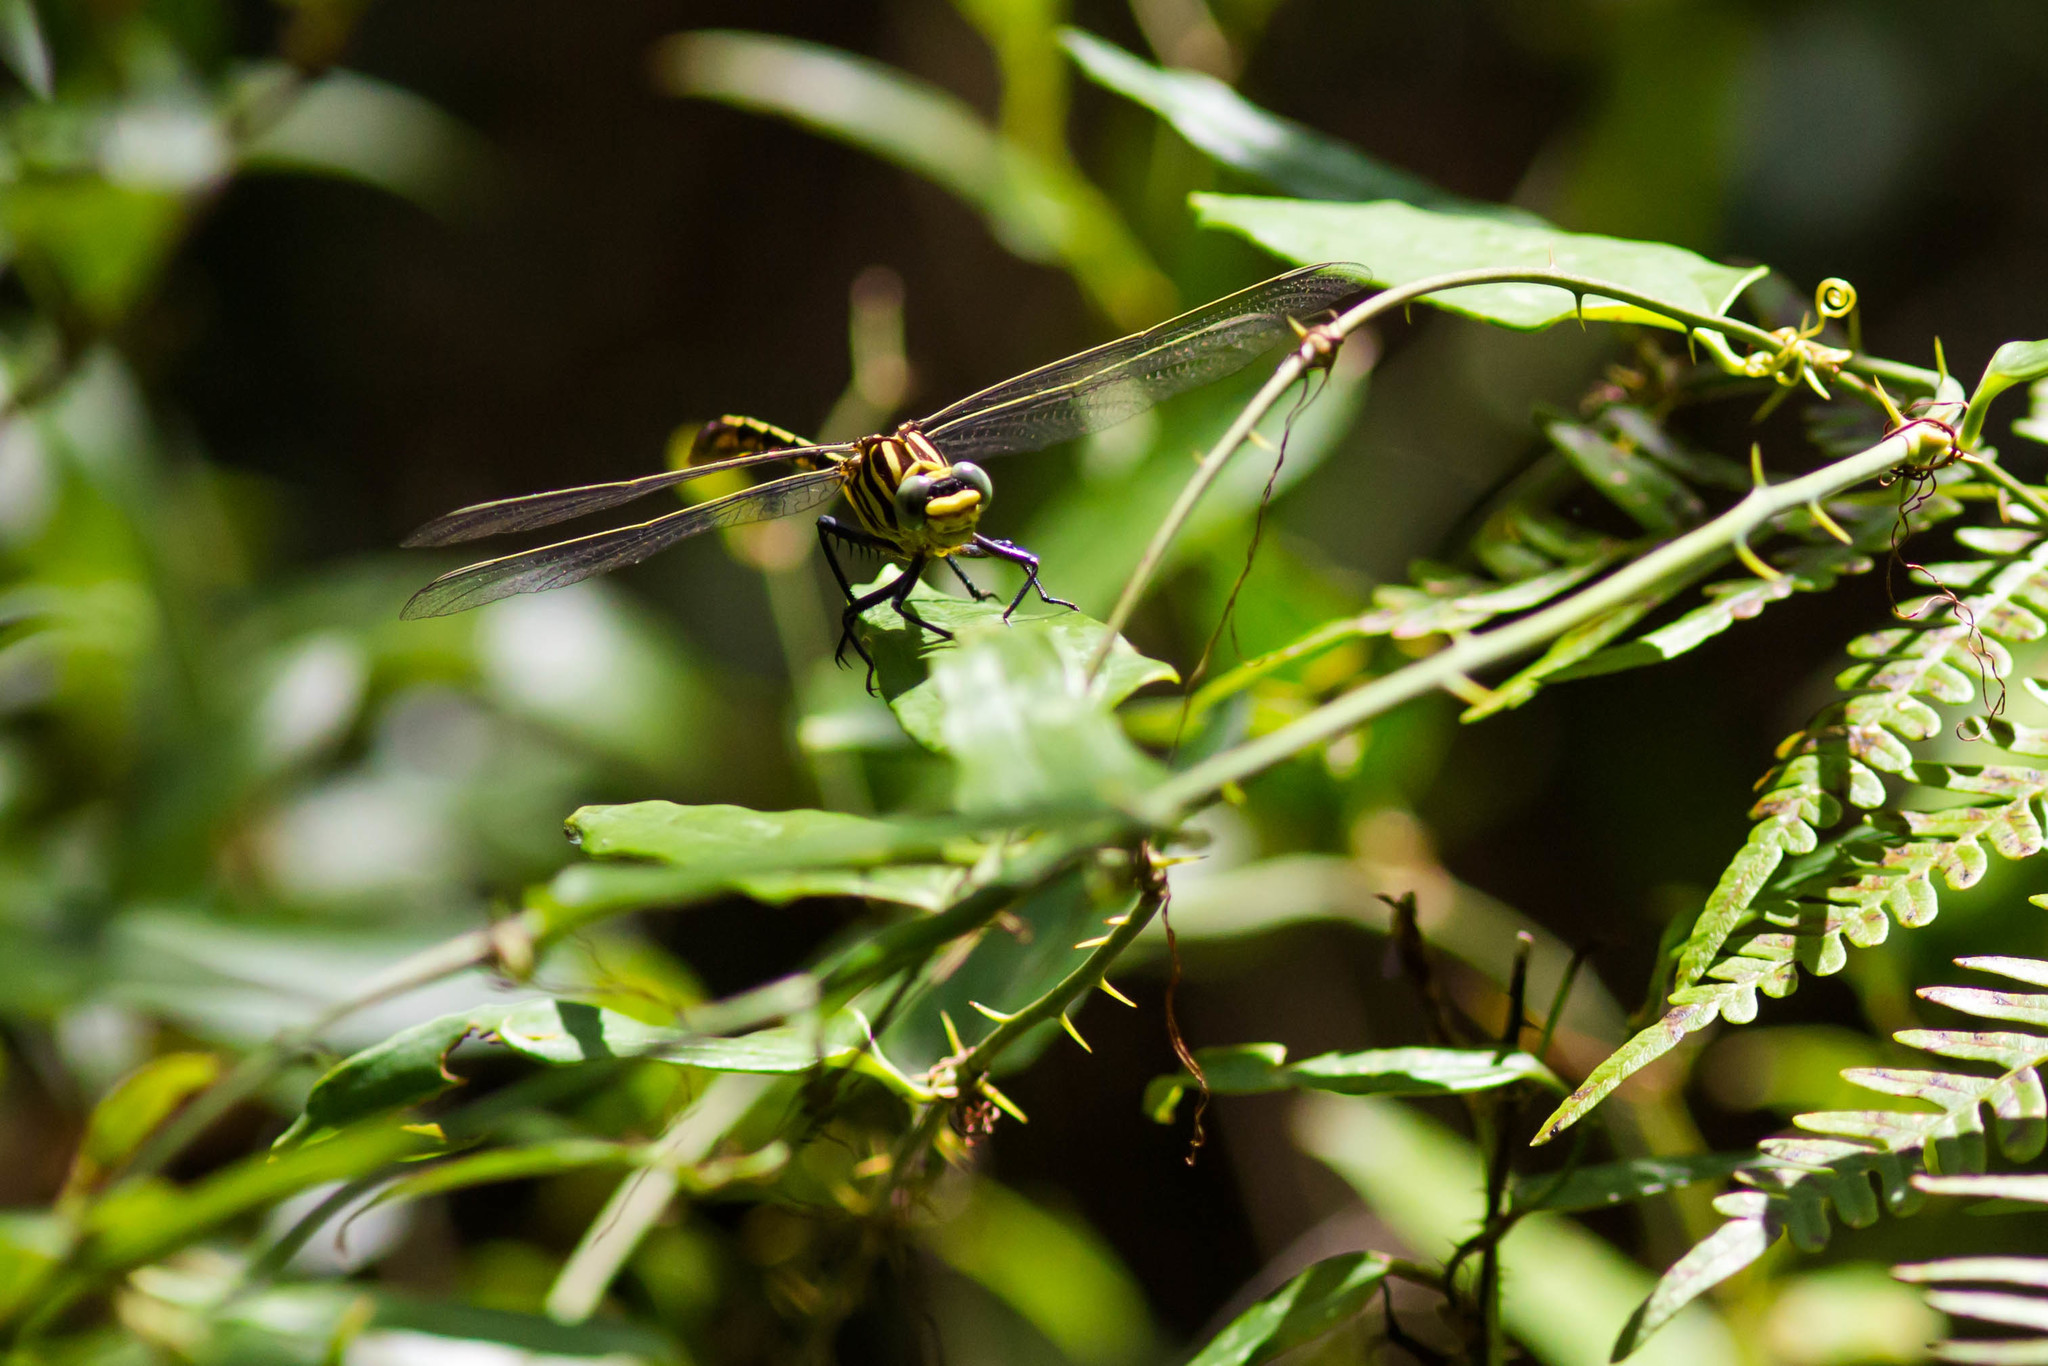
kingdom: Animalia
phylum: Arthropoda
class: Insecta
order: Odonata
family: Gomphidae
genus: Dromogomphus
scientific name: Dromogomphus armatus
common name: Southeastern spinyleg
